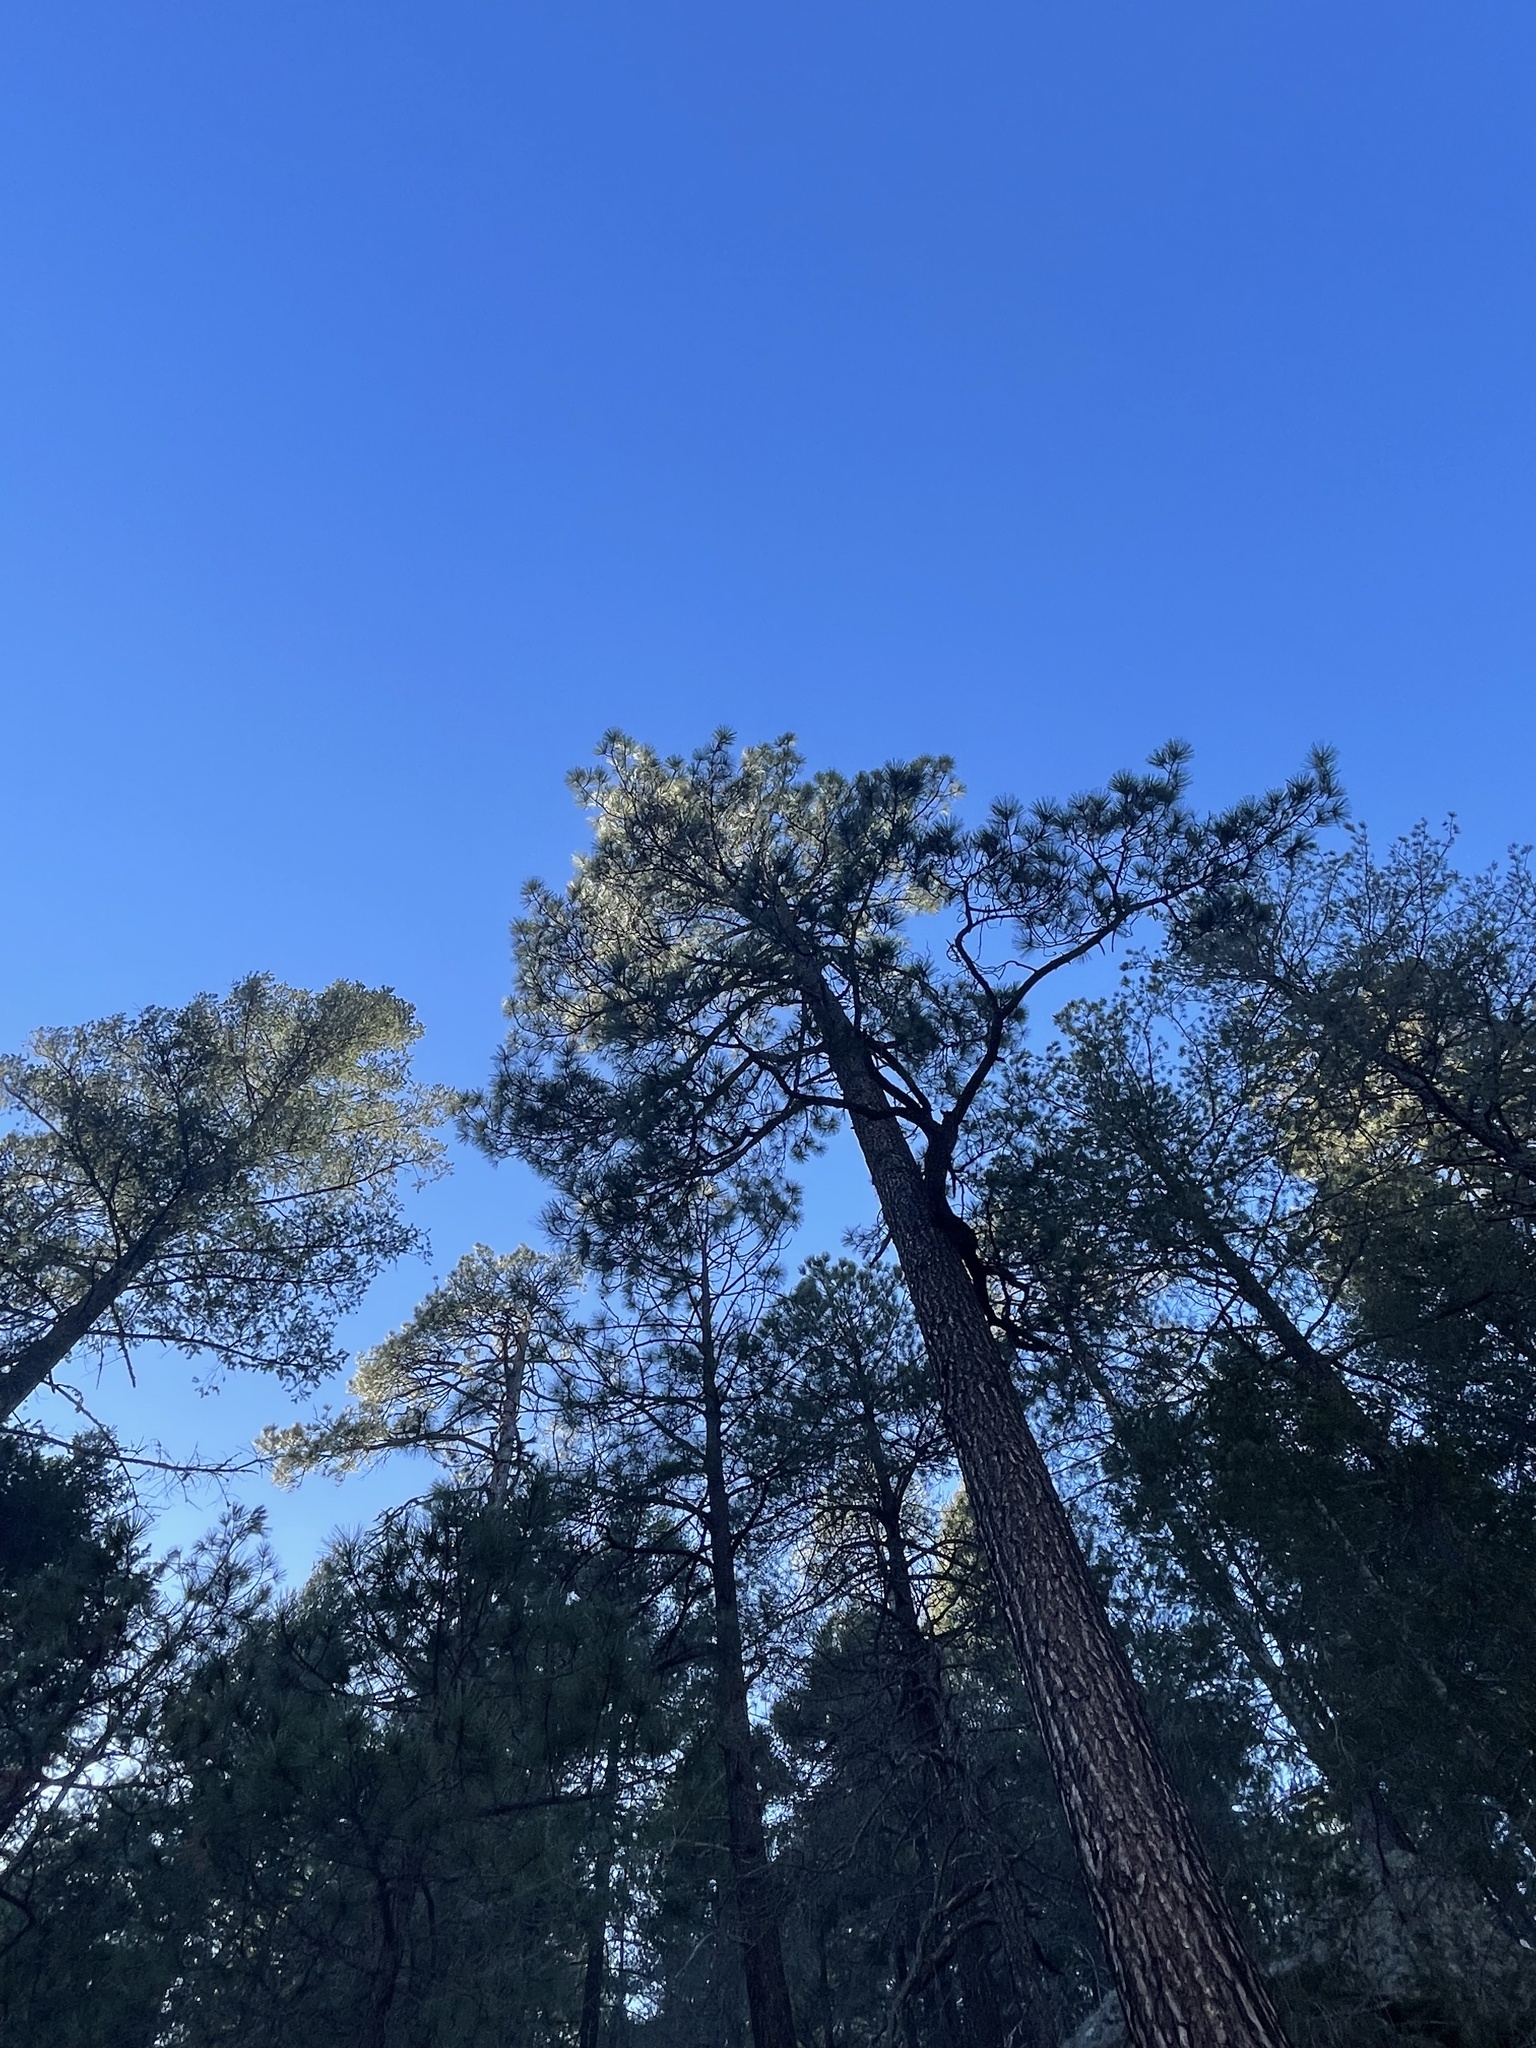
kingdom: Plantae
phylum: Tracheophyta
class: Pinopsida
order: Pinales
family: Pinaceae
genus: Pinus
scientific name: Pinus ponderosa
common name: Western yellow-pine
